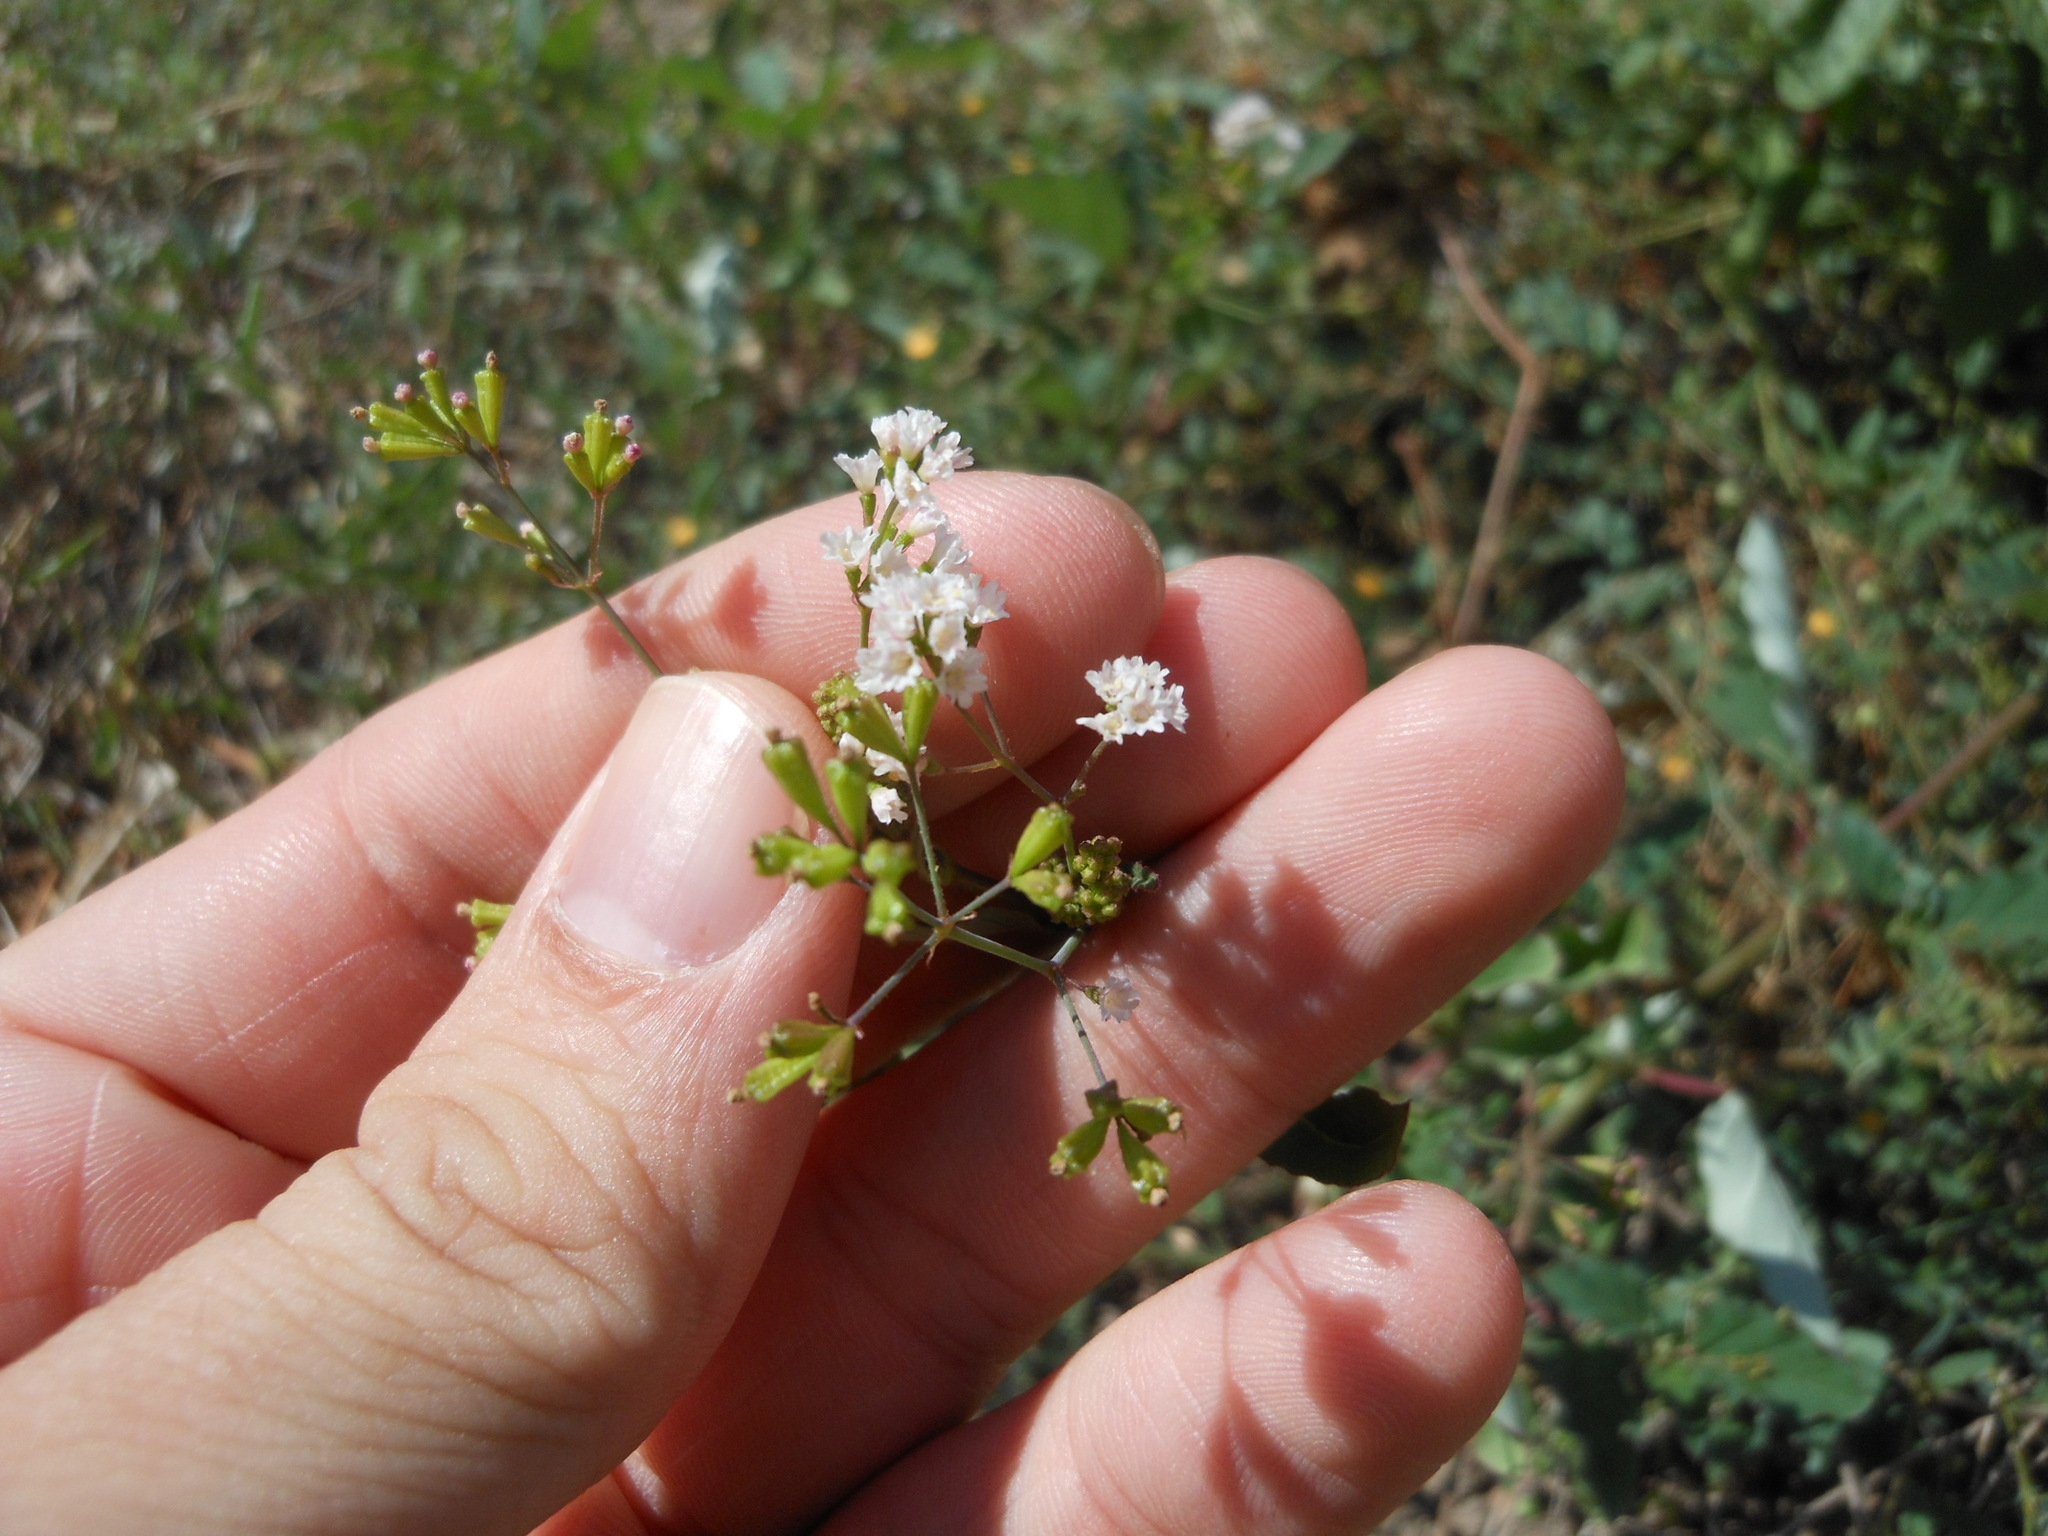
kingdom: Plantae
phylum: Tracheophyta
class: Magnoliopsida
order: Caryophyllales
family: Nyctaginaceae
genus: Boerhavia
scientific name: Boerhavia erecta
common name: Erect spiderling
